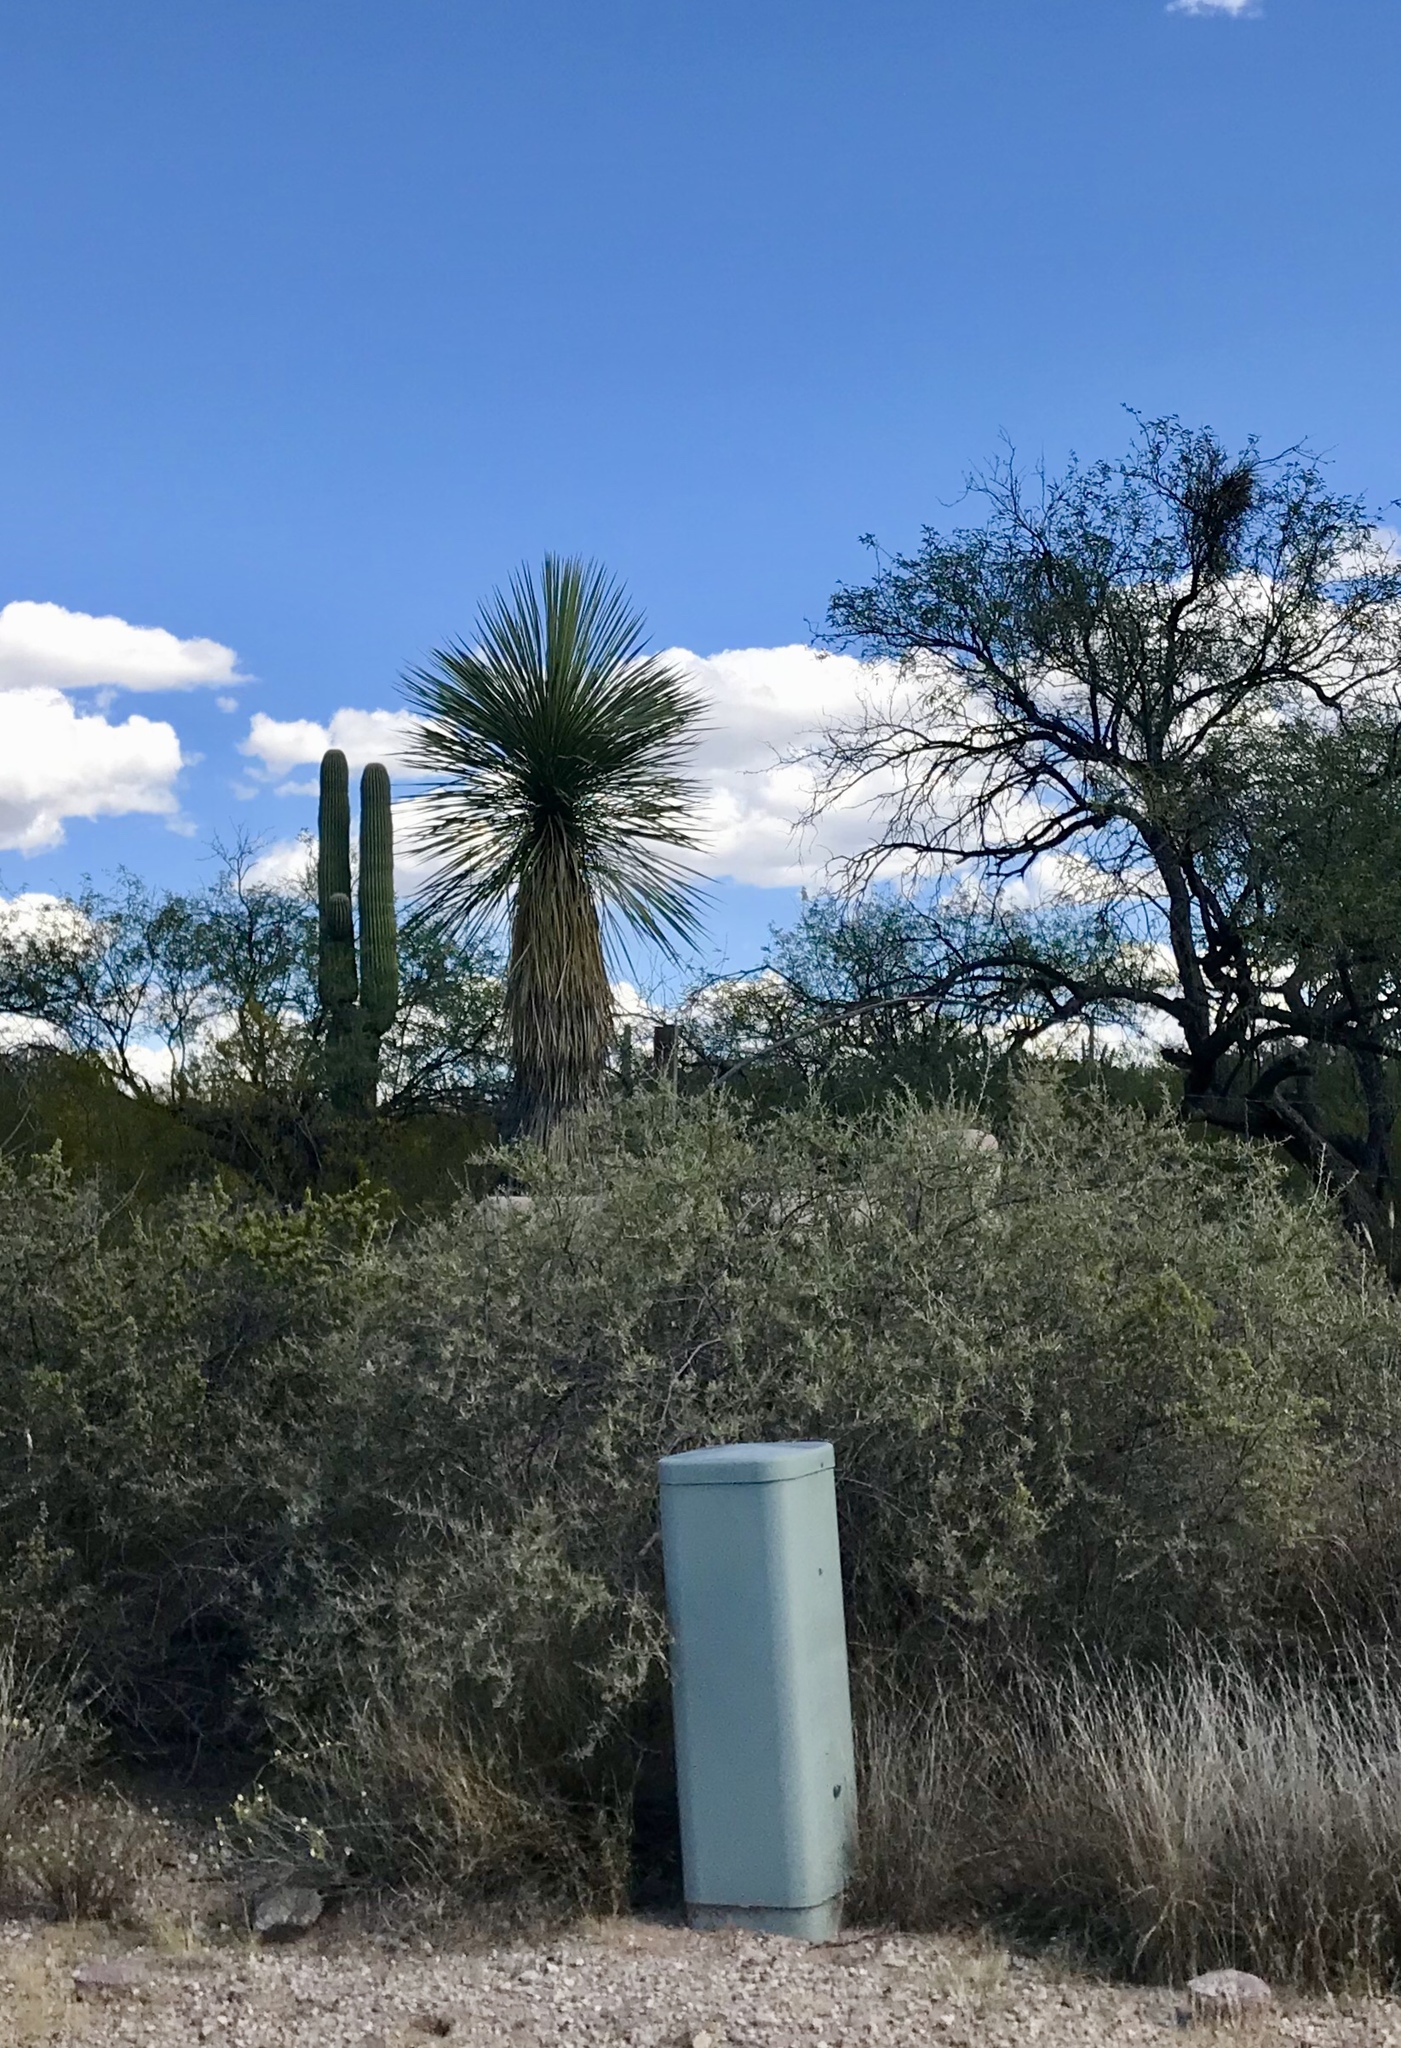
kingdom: Plantae
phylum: Tracheophyta
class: Liliopsida
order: Asparagales
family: Asparagaceae
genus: Yucca
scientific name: Yucca elata
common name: Palmella
